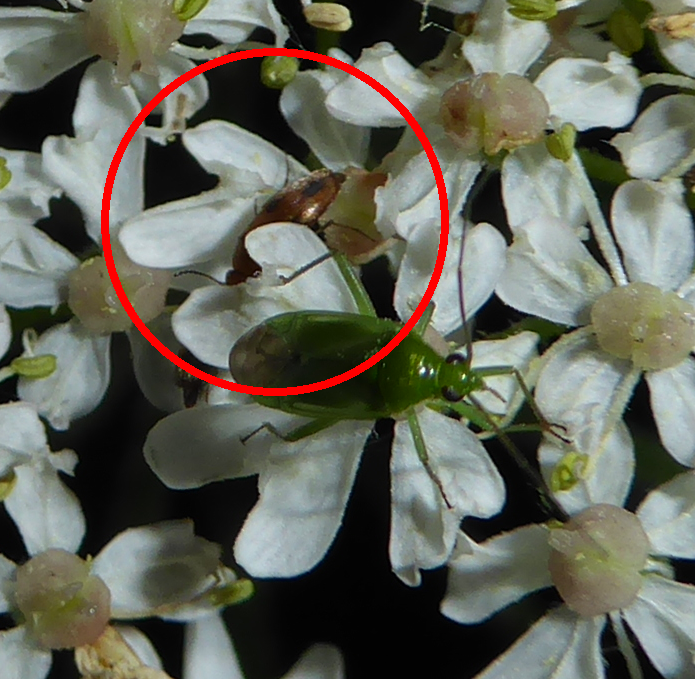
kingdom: Animalia
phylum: Arthropoda
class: Insecta
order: Coleoptera
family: Scraptiidae
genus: Anaspis
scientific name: Anaspis maculata
